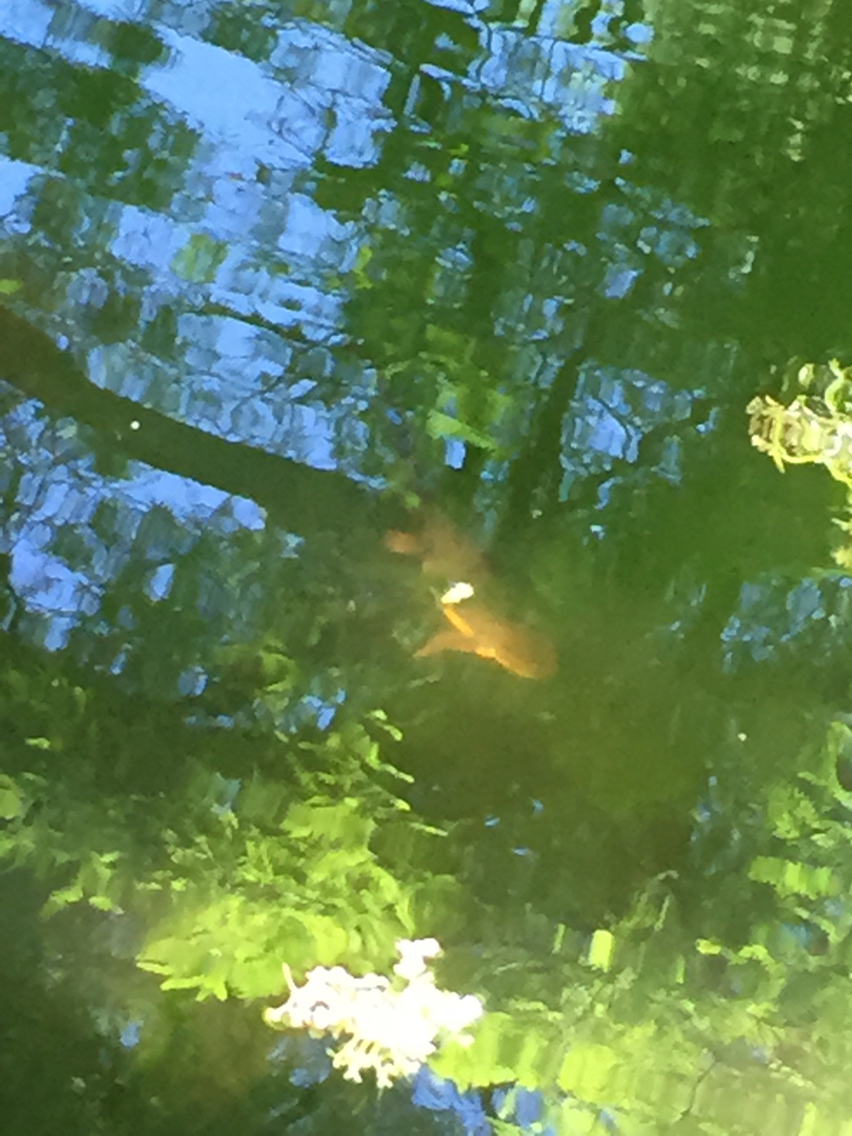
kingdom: Animalia
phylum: Chordata
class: Amphibia
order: Caudata
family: Salamandridae
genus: Taricha
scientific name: Taricha granulosa
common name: Roughskin newt
